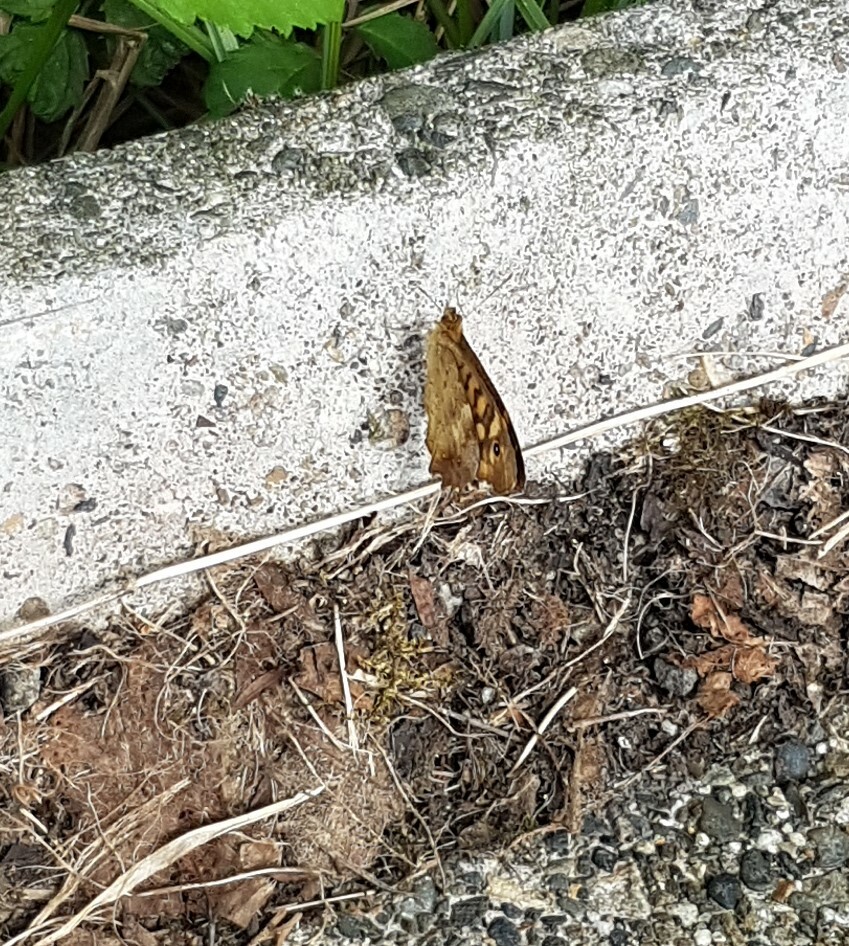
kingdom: Animalia
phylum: Arthropoda
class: Insecta
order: Lepidoptera
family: Nymphalidae
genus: Pararge
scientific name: Pararge aegeria
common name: Speckled wood
